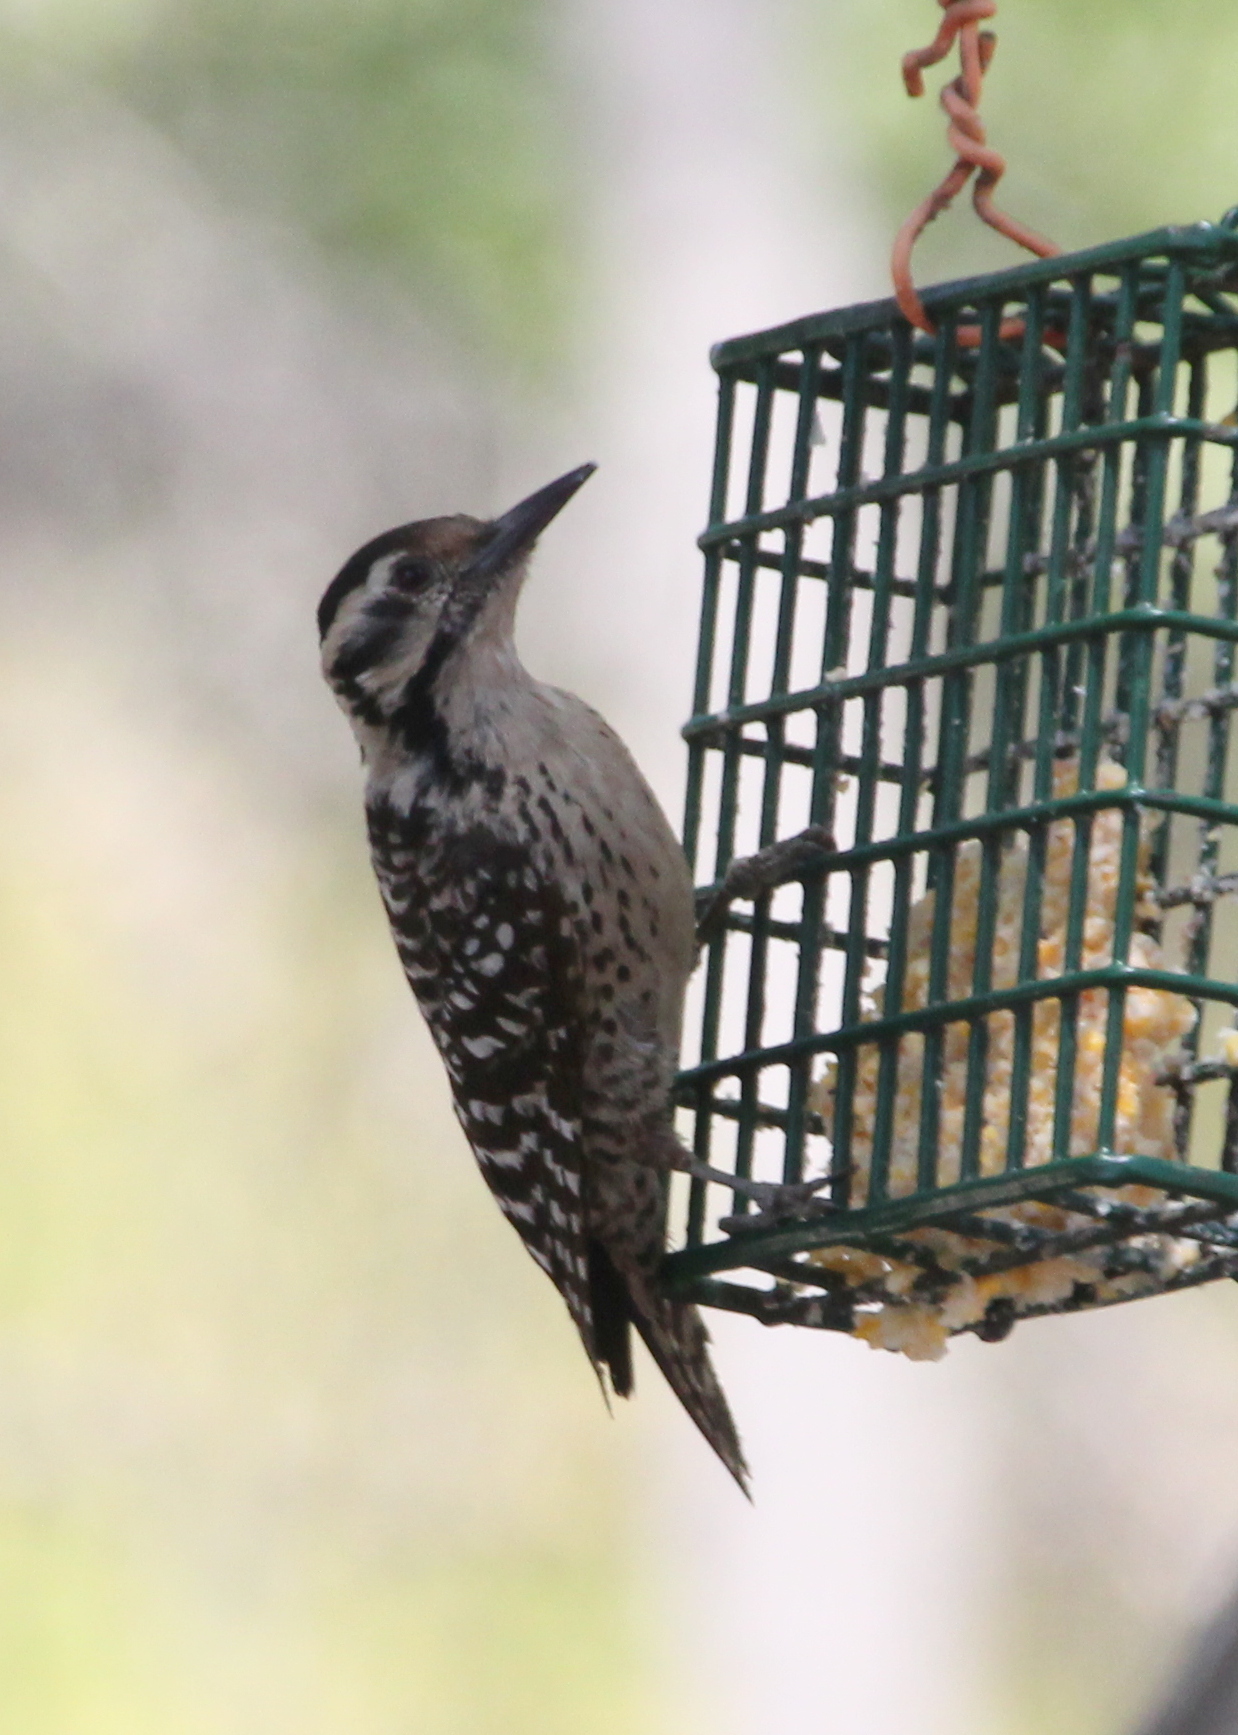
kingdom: Animalia
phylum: Chordata
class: Aves
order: Piciformes
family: Picidae
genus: Dryobates
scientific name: Dryobates scalaris
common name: Ladder-backed woodpecker
